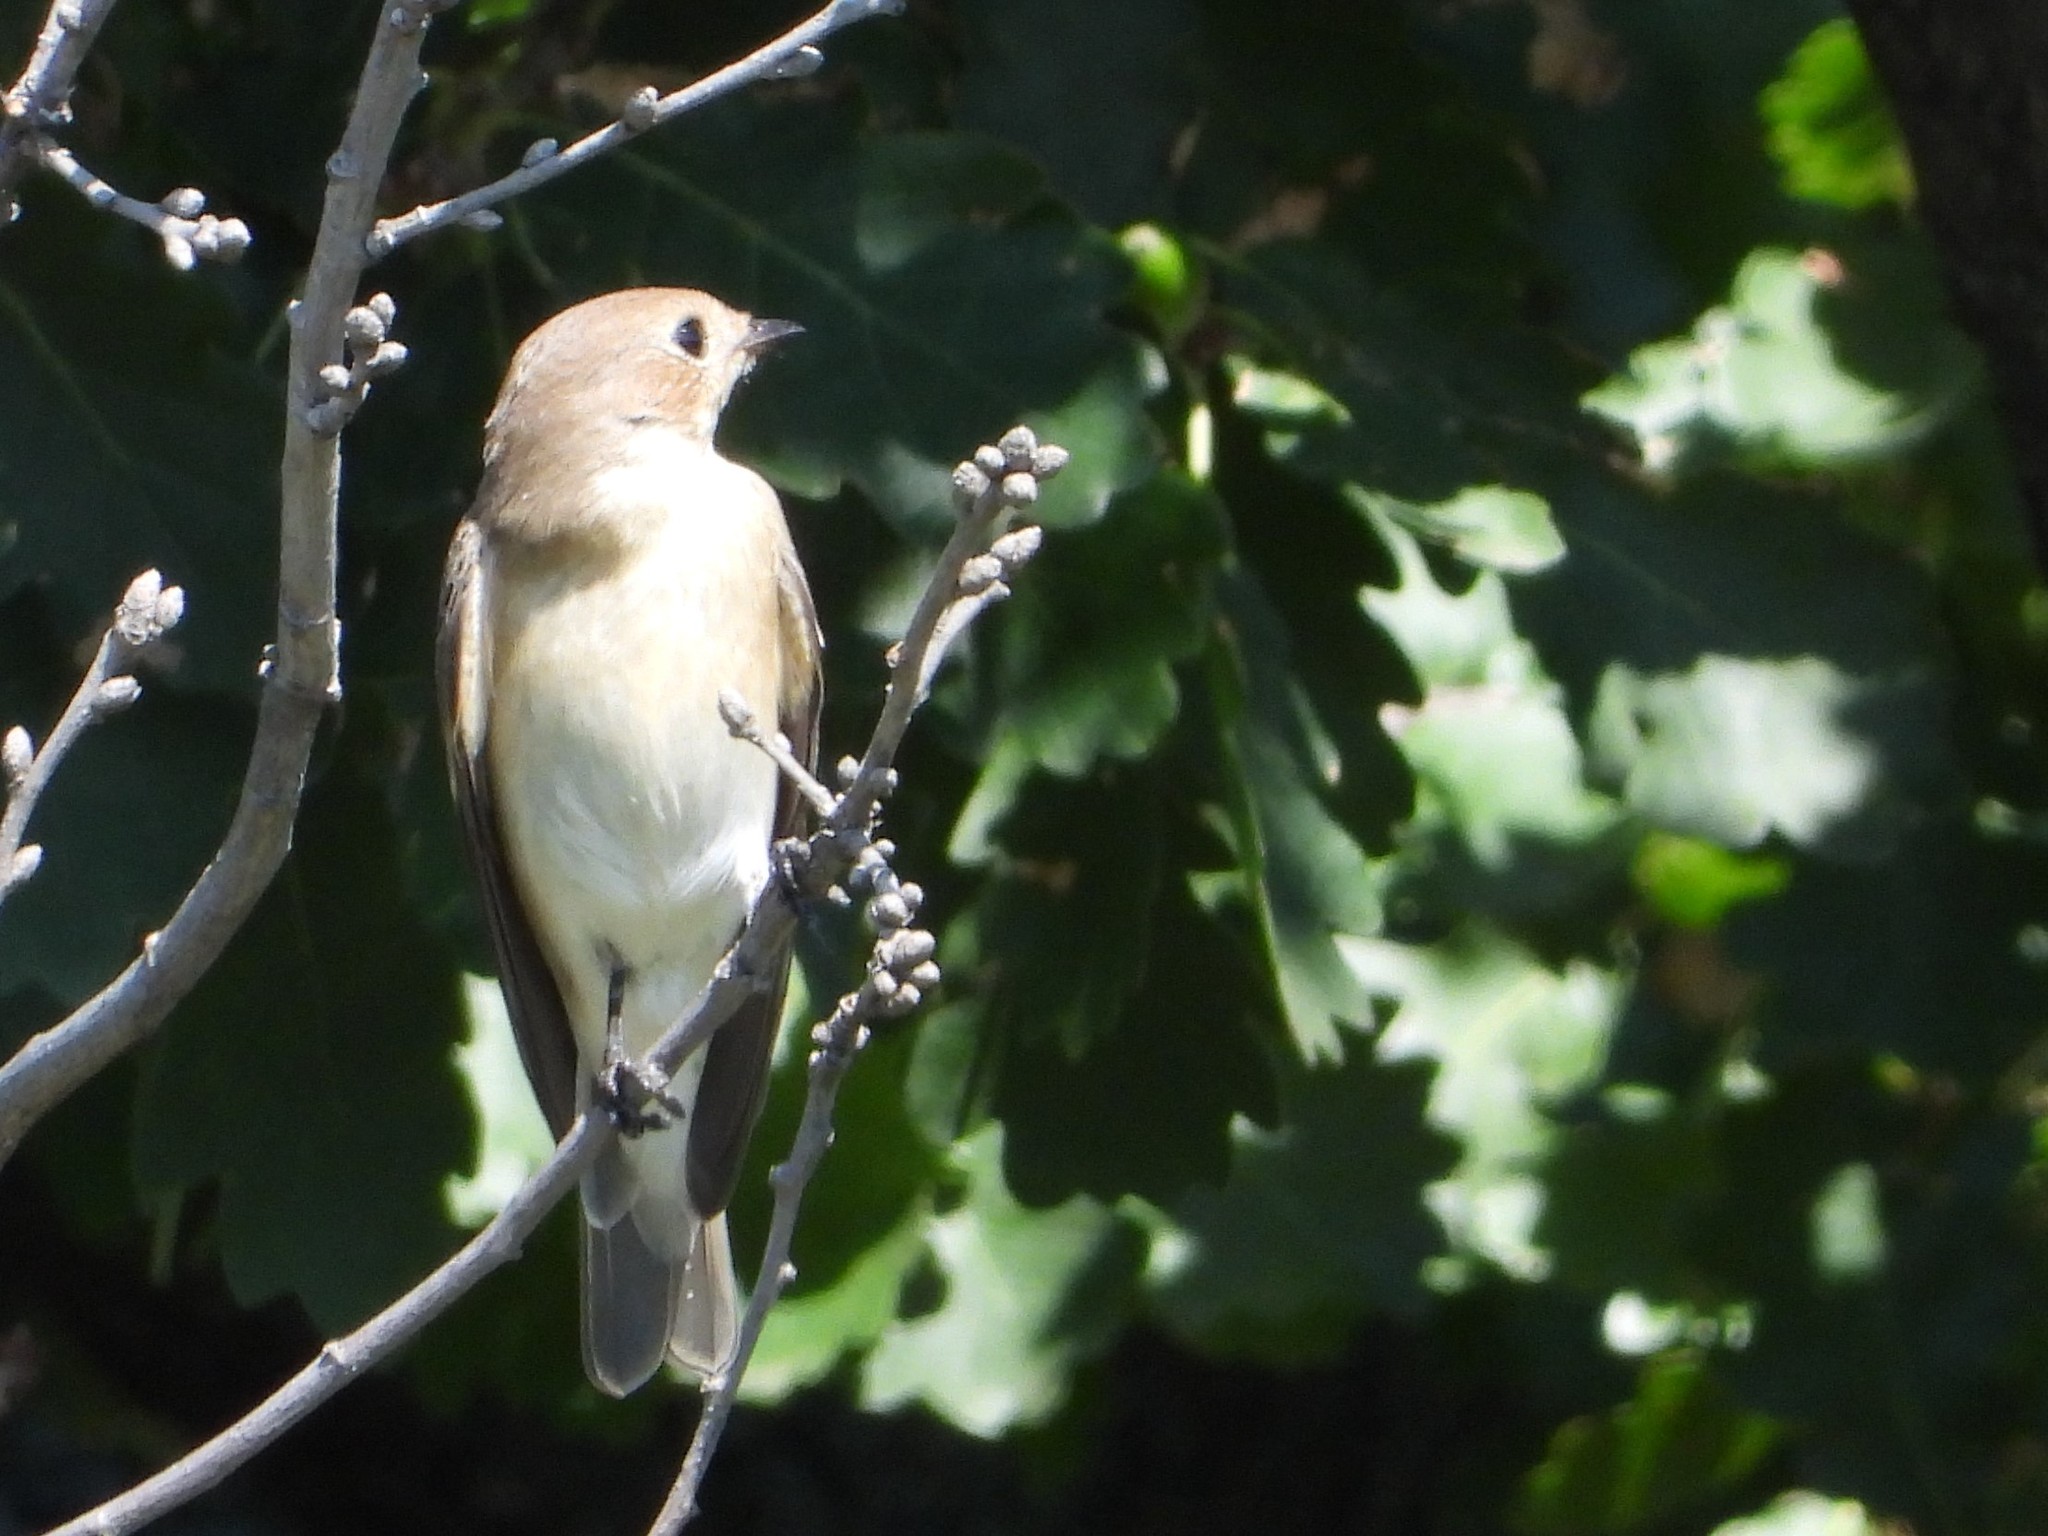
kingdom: Animalia
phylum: Chordata
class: Aves
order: Passeriformes
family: Muscicapidae
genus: Ficedula
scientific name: Ficedula hypoleuca
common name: European pied flycatcher
